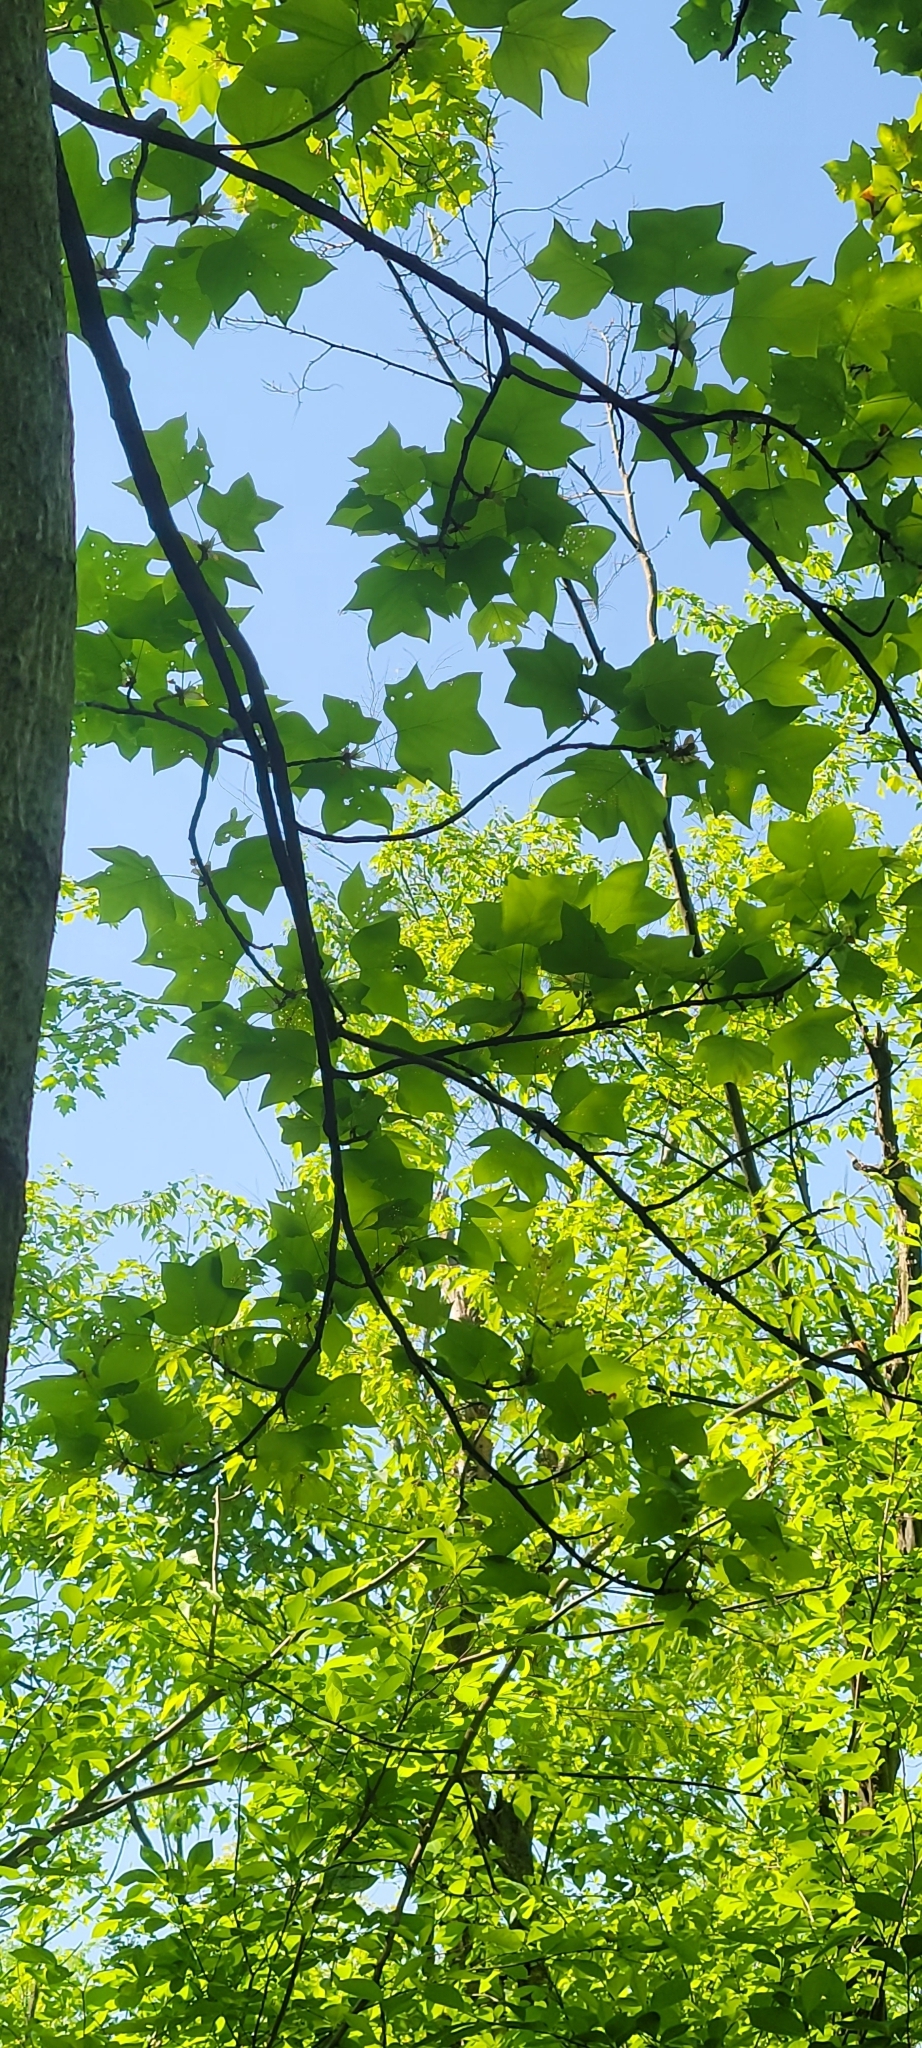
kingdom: Plantae
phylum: Tracheophyta
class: Magnoliopsida
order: Magnoliales
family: Magnoliaceae
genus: Liriodendron
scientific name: Liriodendron tulipifera
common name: Tulip tree
